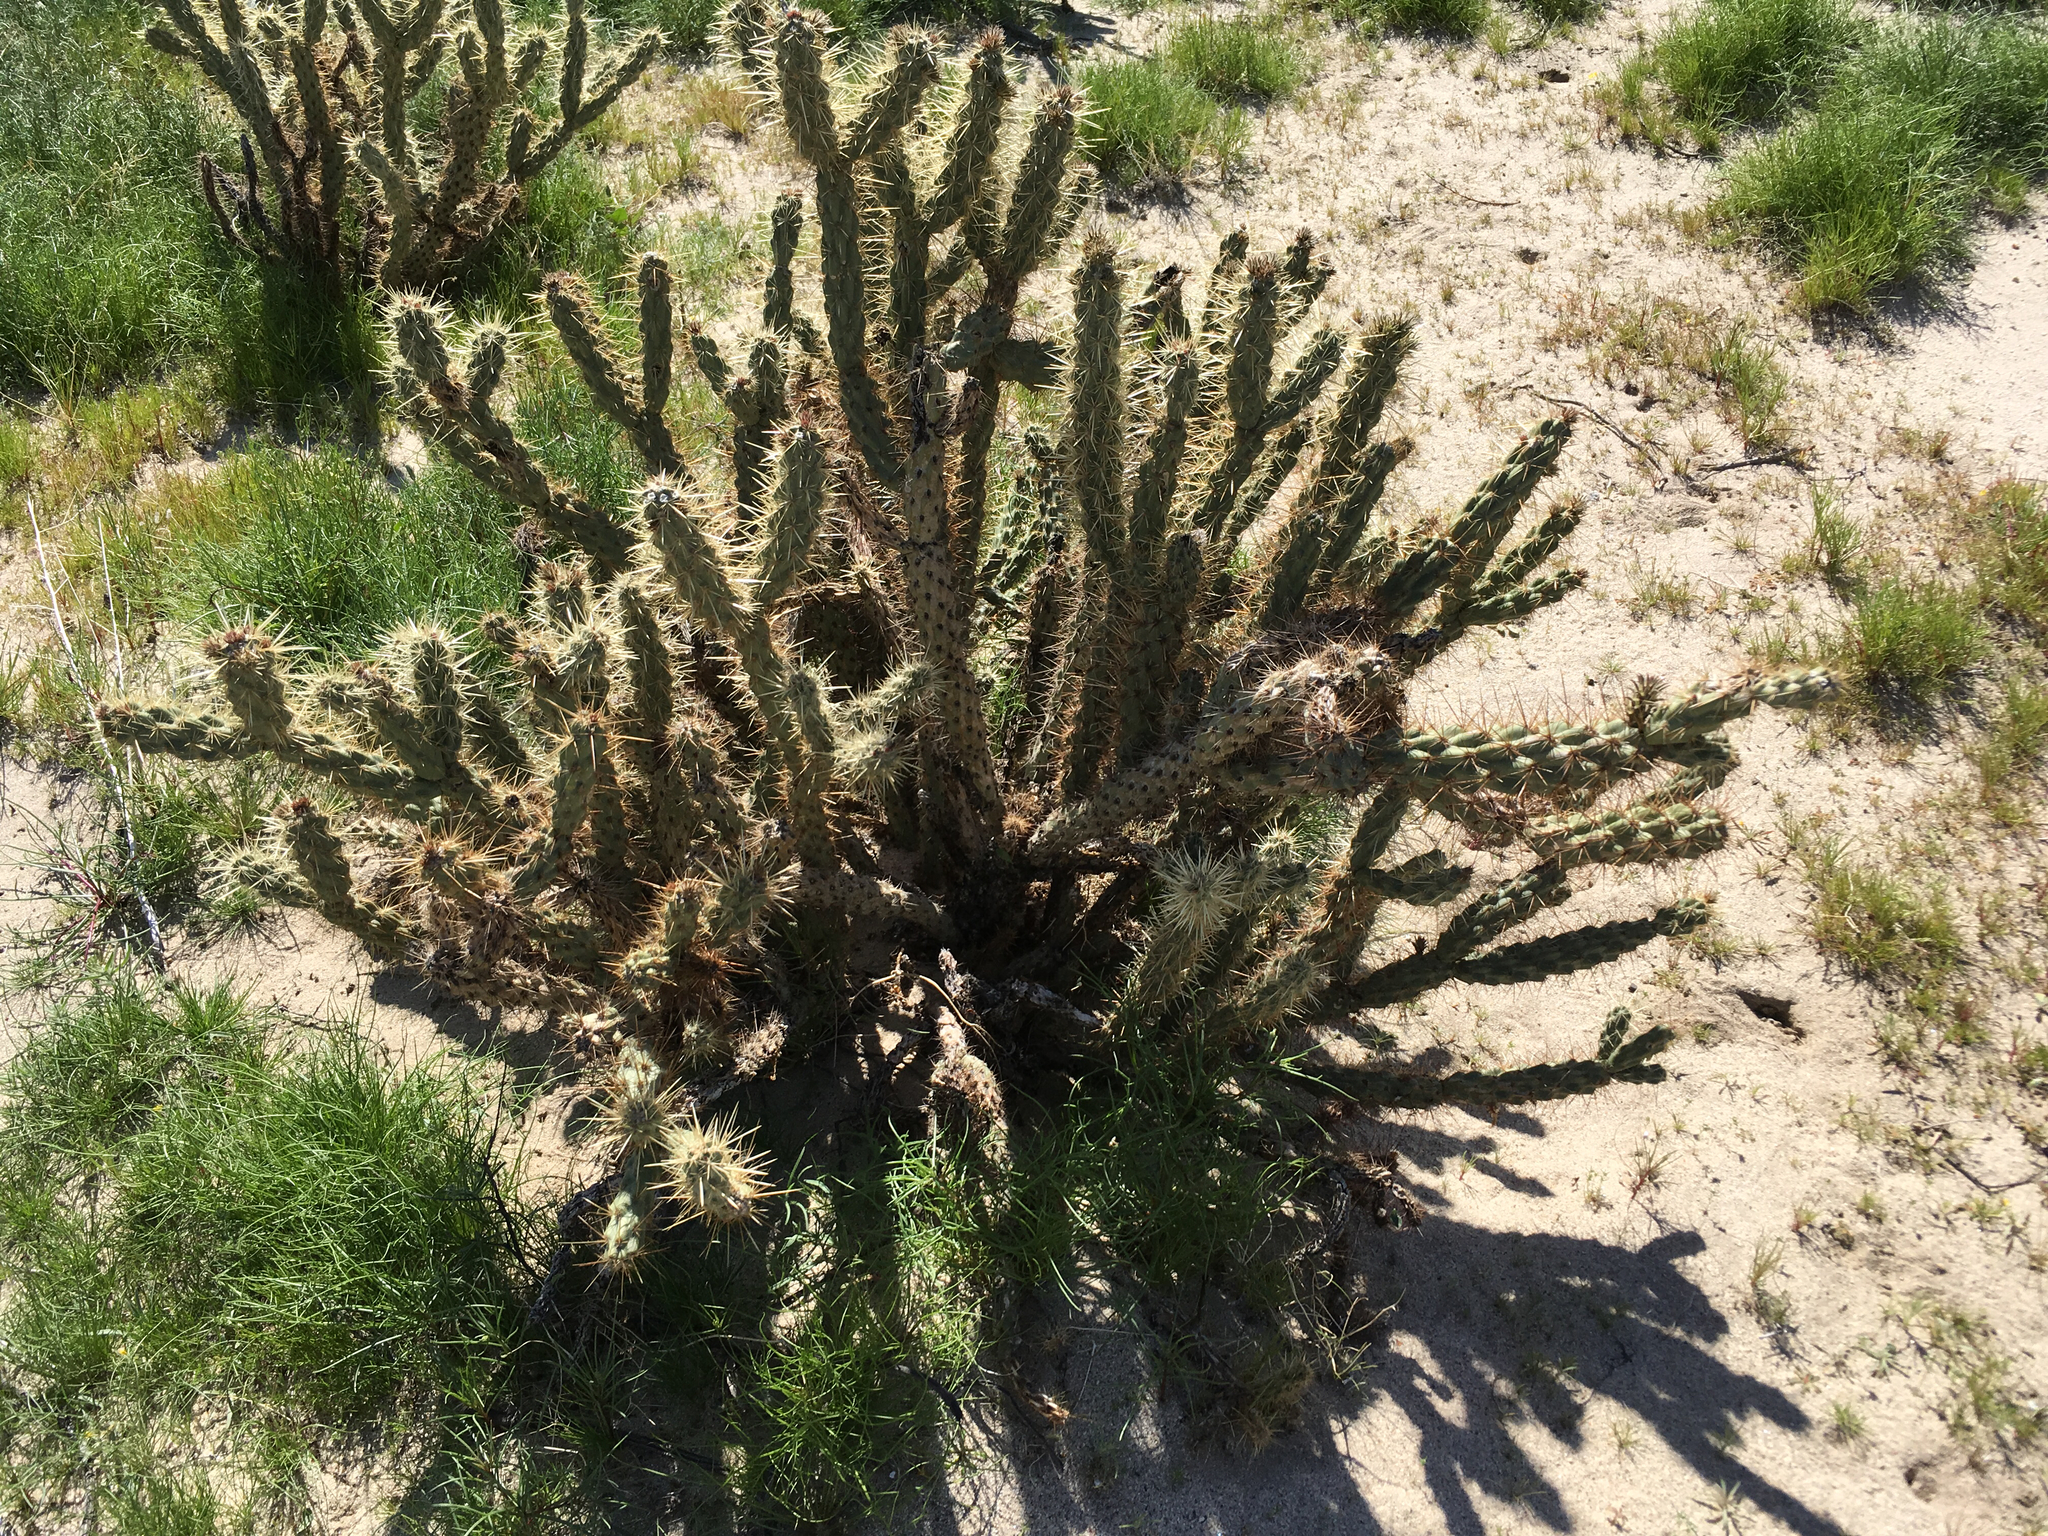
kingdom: Plantae
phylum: Tracheophyta
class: Magnoliopsida
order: Caryophyllales
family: Cactaceae
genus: Cylindropuntia
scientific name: Cylindropuntia ganderi
